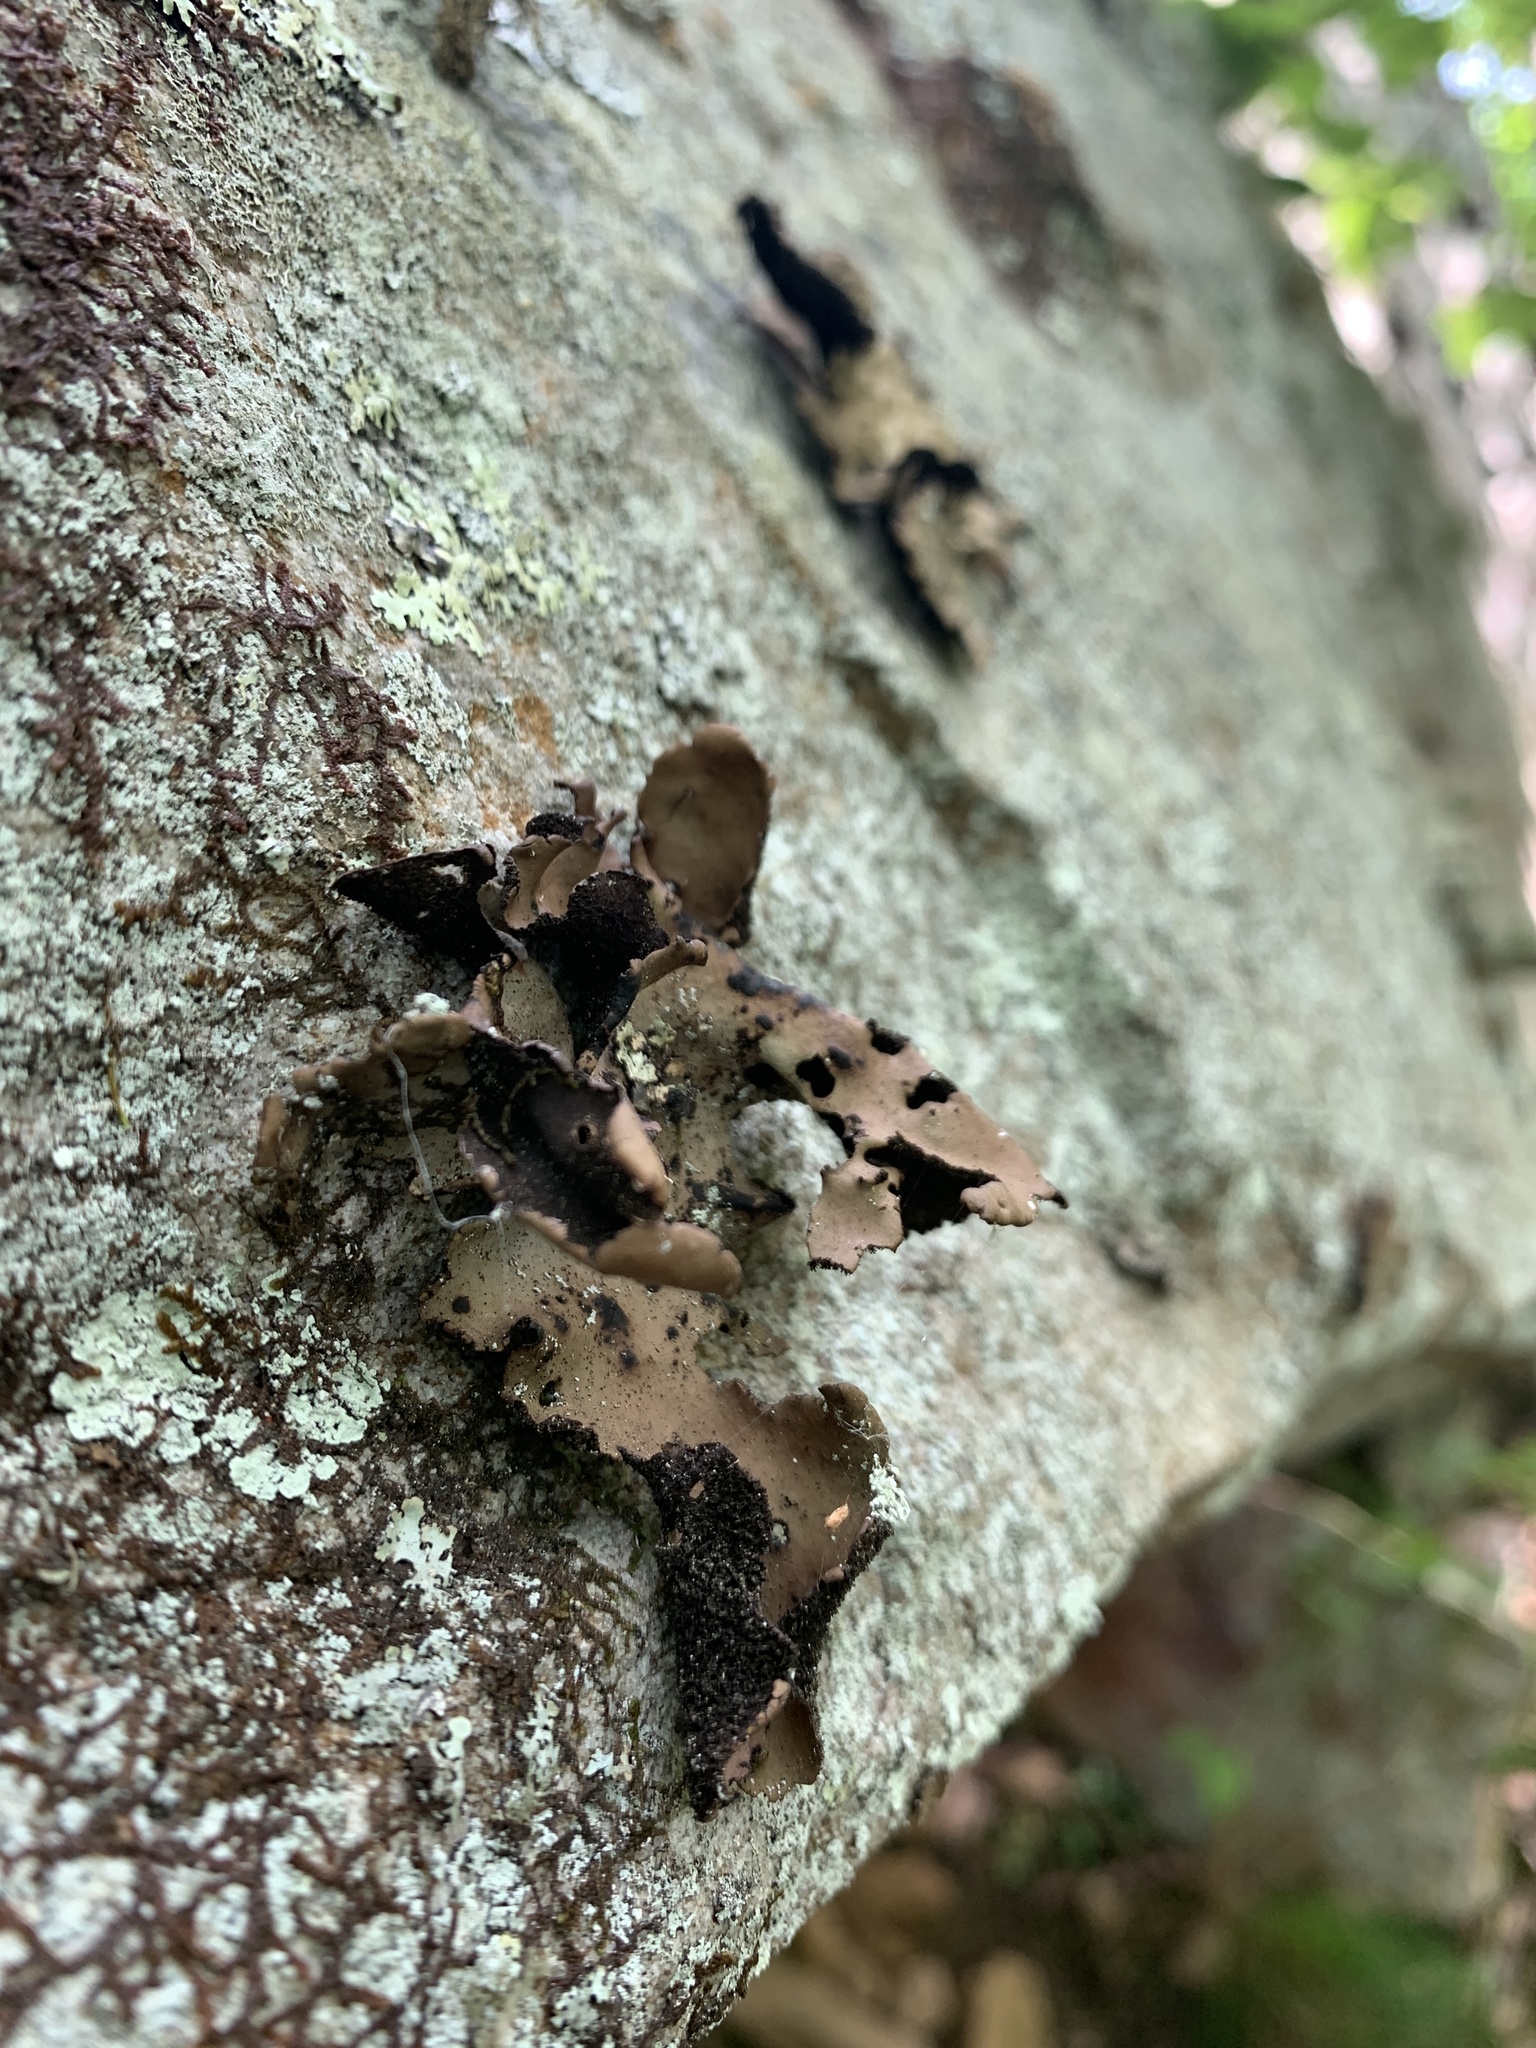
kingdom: Fungi
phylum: Ascomycota
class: Lecanoromycetes
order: Umbilicariales
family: Umbilicariaceae
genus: Umbilicaria
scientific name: Umbilicaria mammulata
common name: Smooth rock tripe
